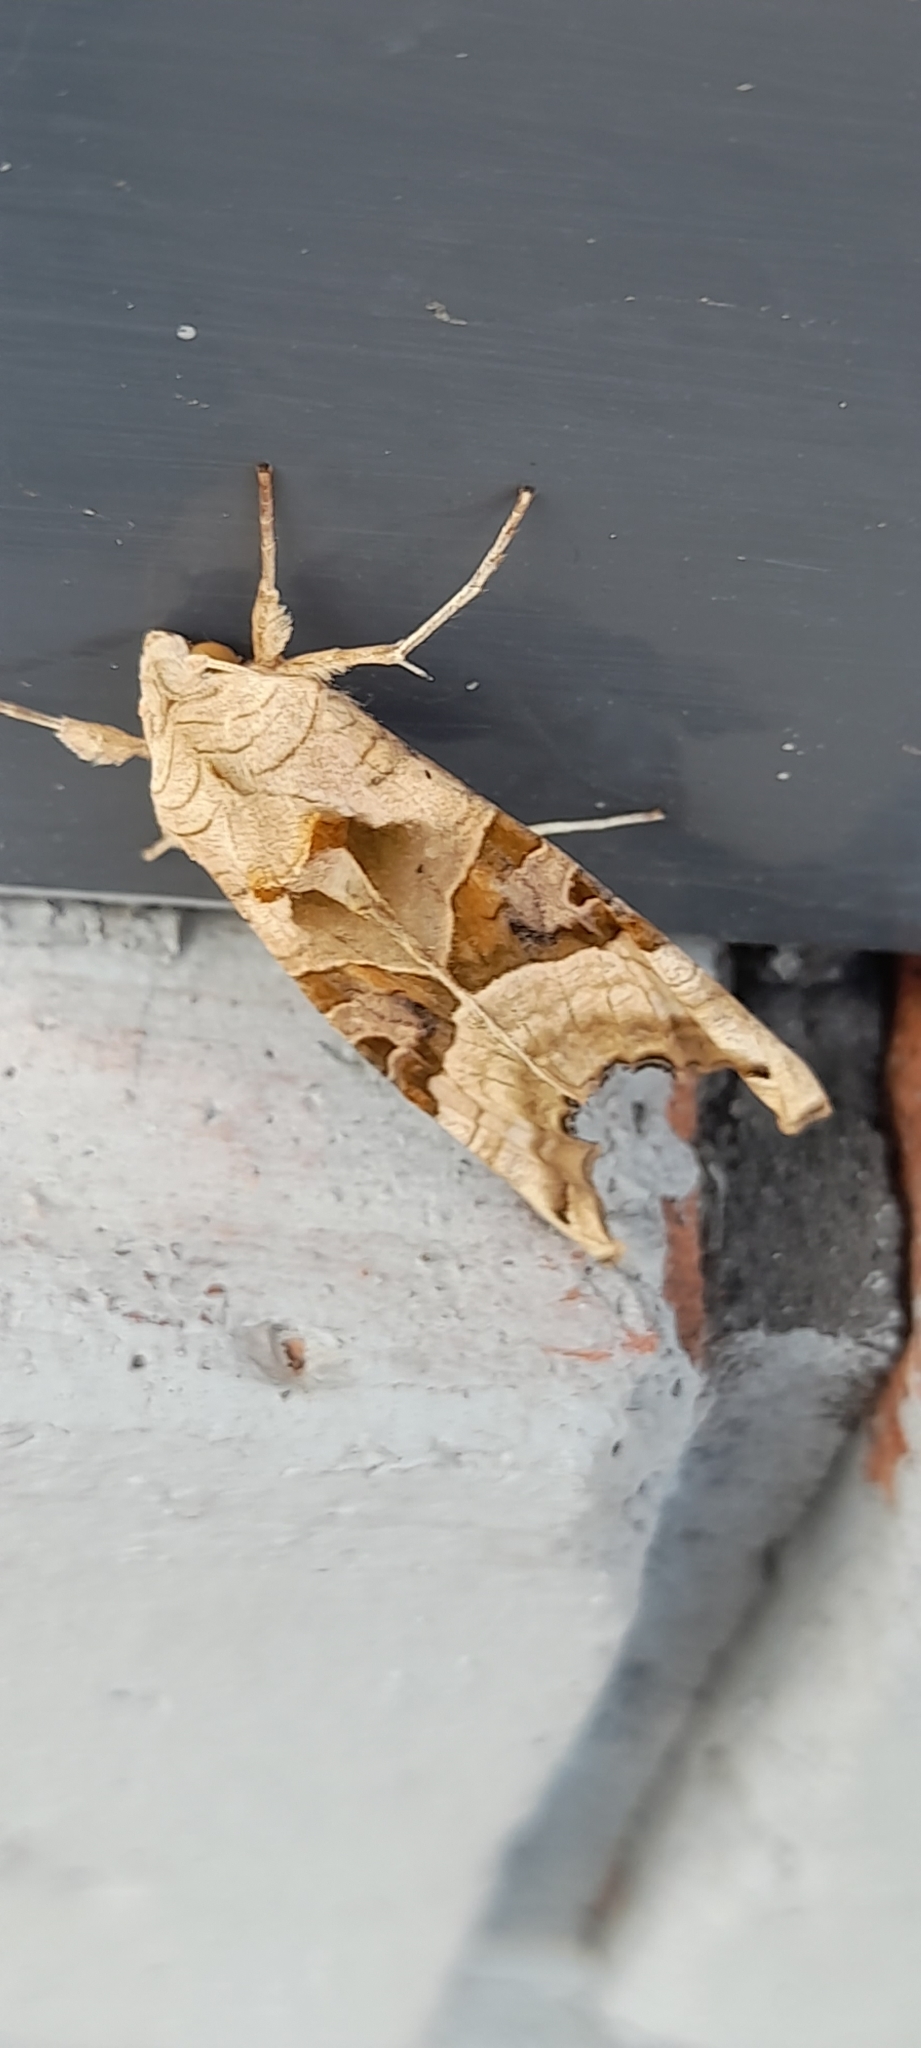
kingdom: Animalia
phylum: Arthropoda
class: Insecta
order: Lepidoptera
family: Noctuidae
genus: Phlogophora
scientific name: Phlogophora meticulosa
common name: Angle shades
